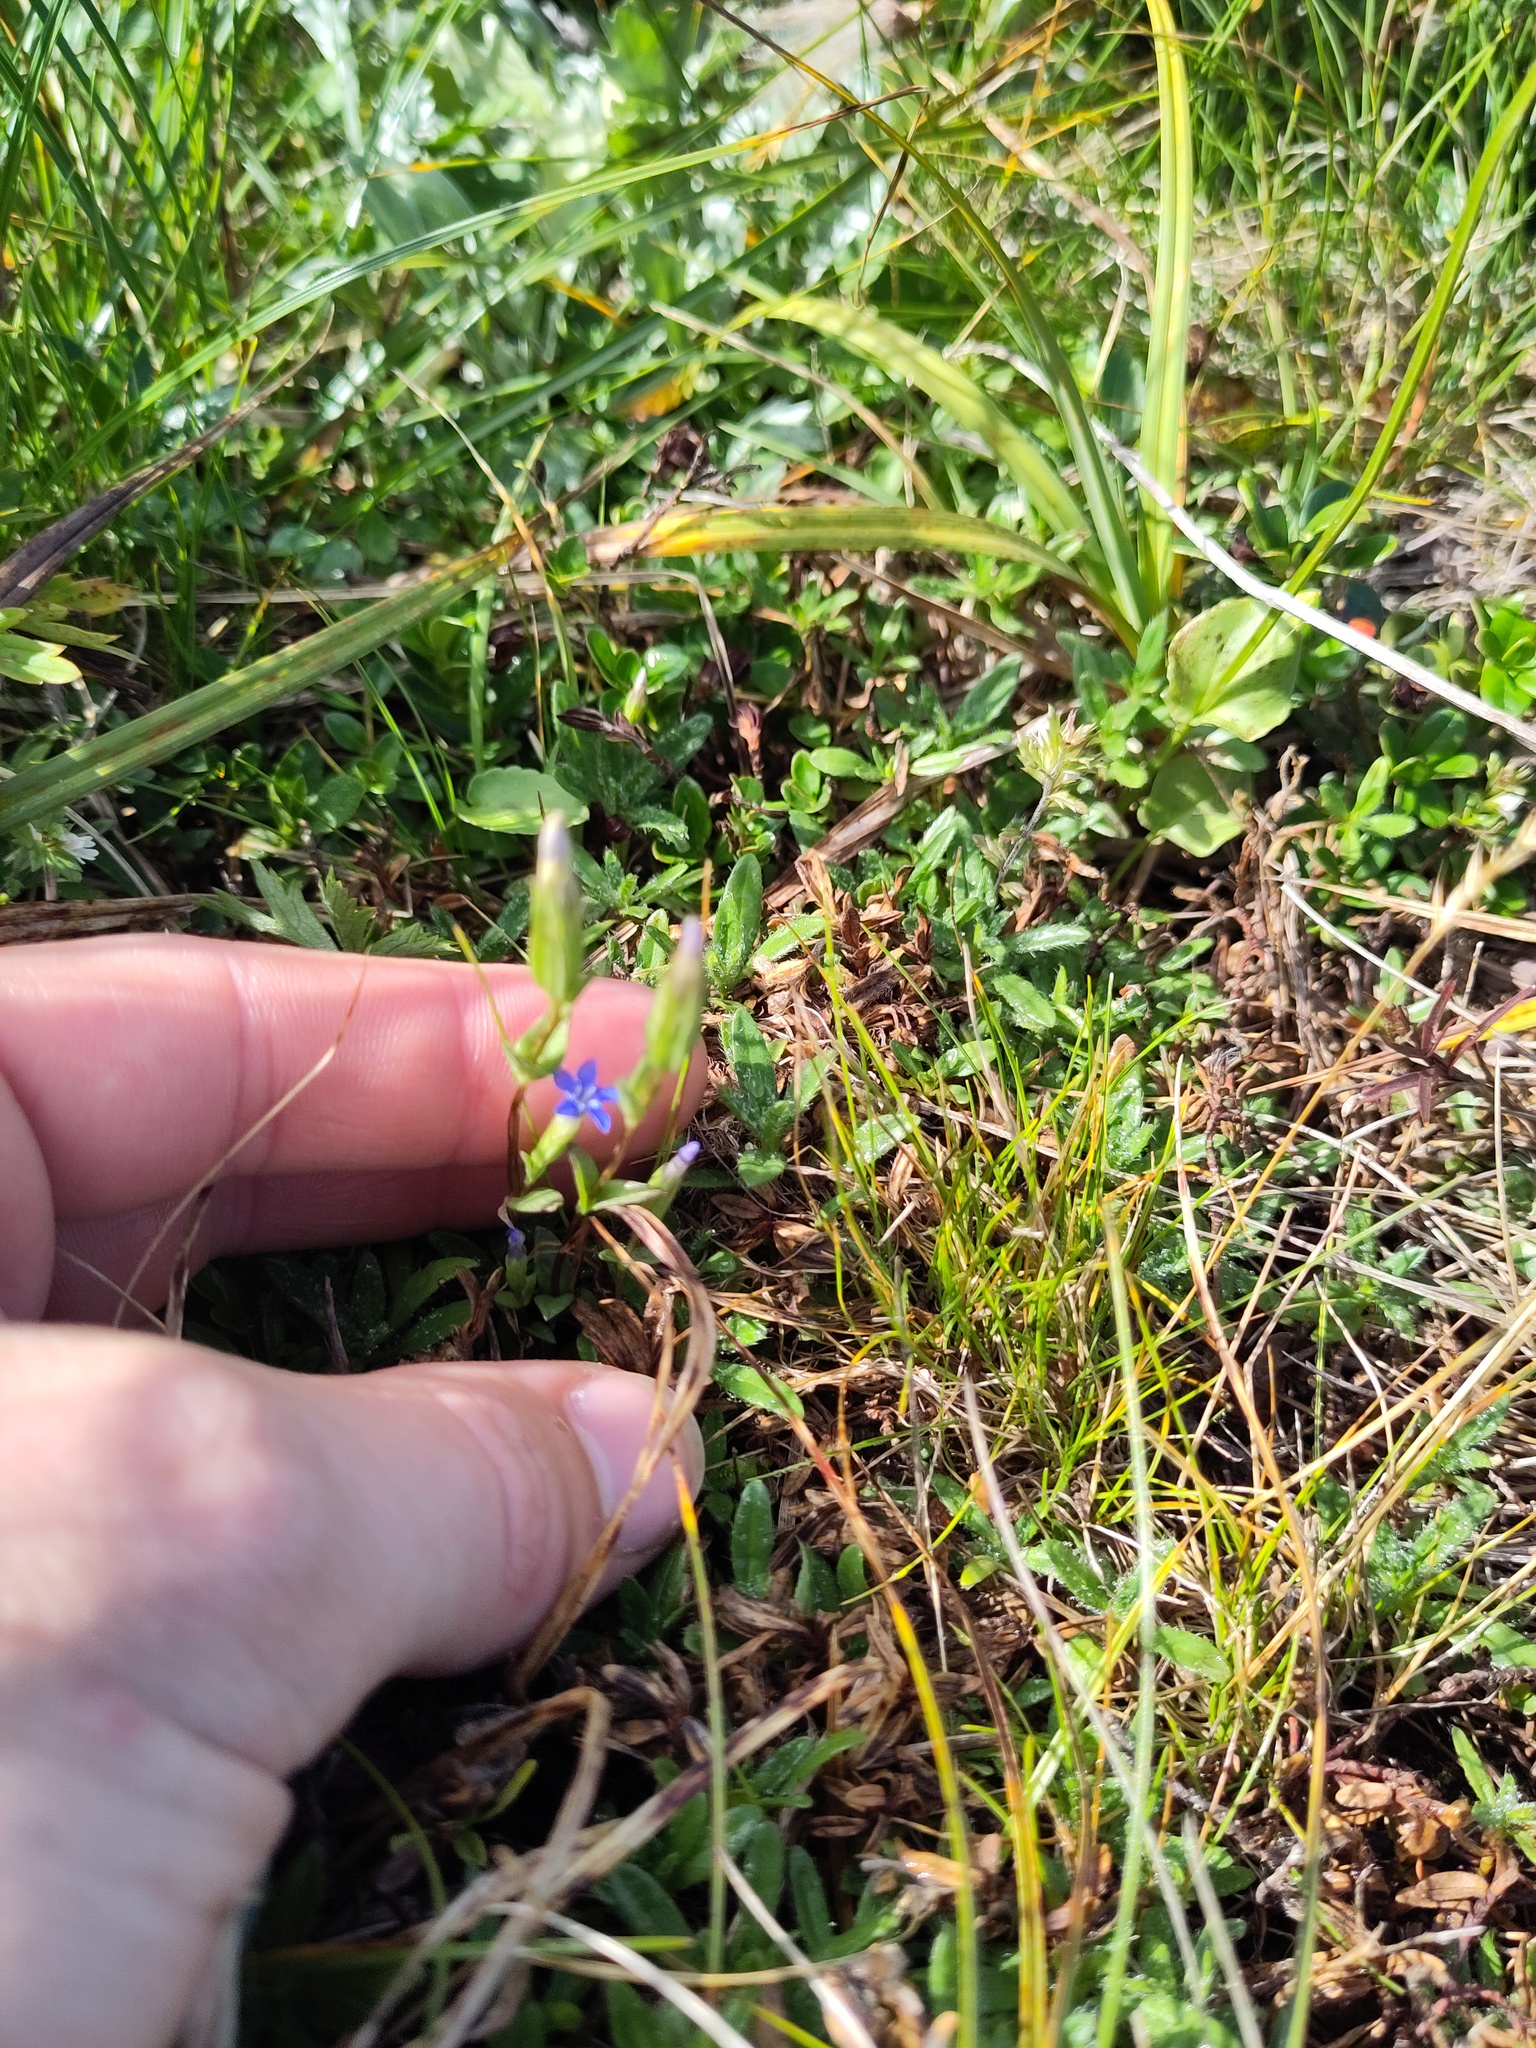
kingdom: Plantae
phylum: Tracheophyta
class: Magnoliopsida
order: Gentianales
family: Gentianaceae
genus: Gentiana
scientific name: Gentiana nivalis
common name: Alpine gentian
